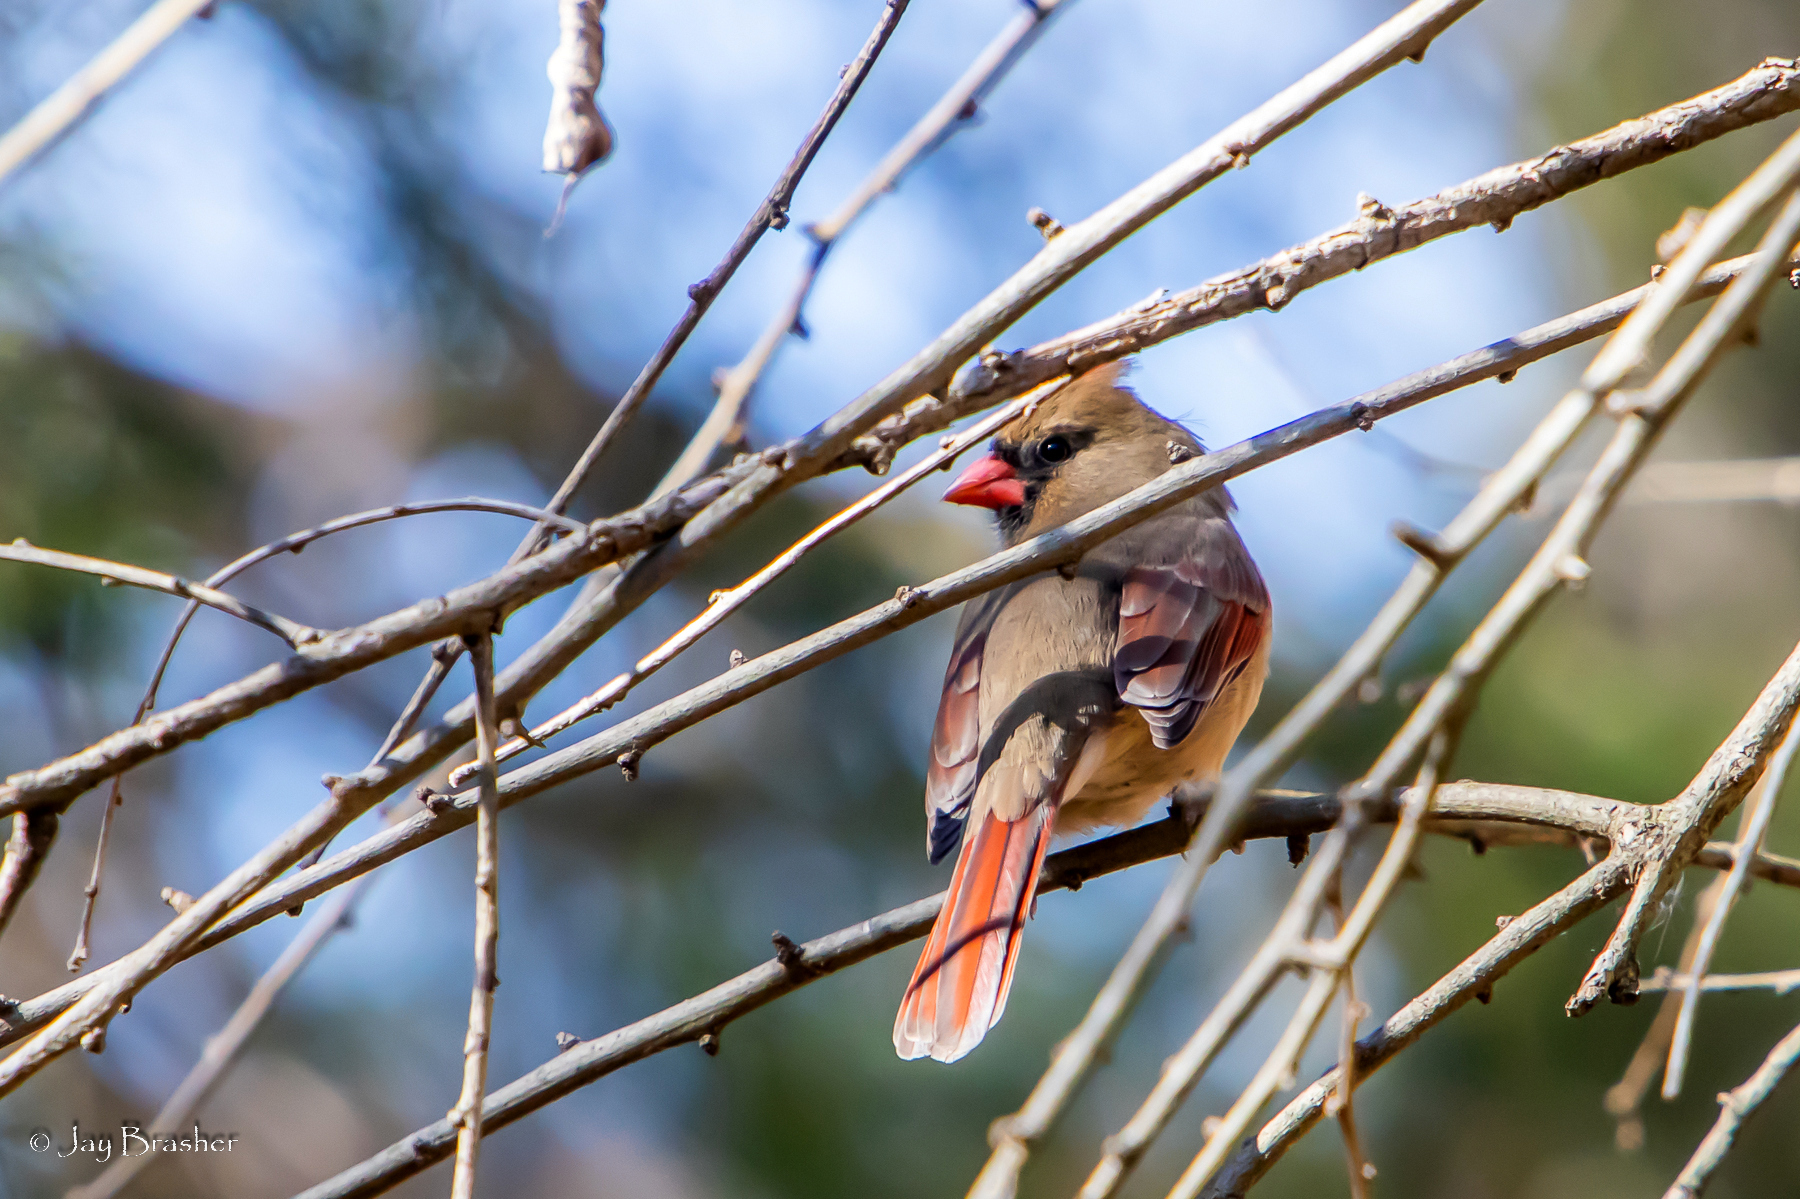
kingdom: Animalia
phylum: Chordata
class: Aves
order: Passeriformes
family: Cardinalidae
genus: Cardinalis
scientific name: Cardinalis cardinalis
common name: Northern cardinal
